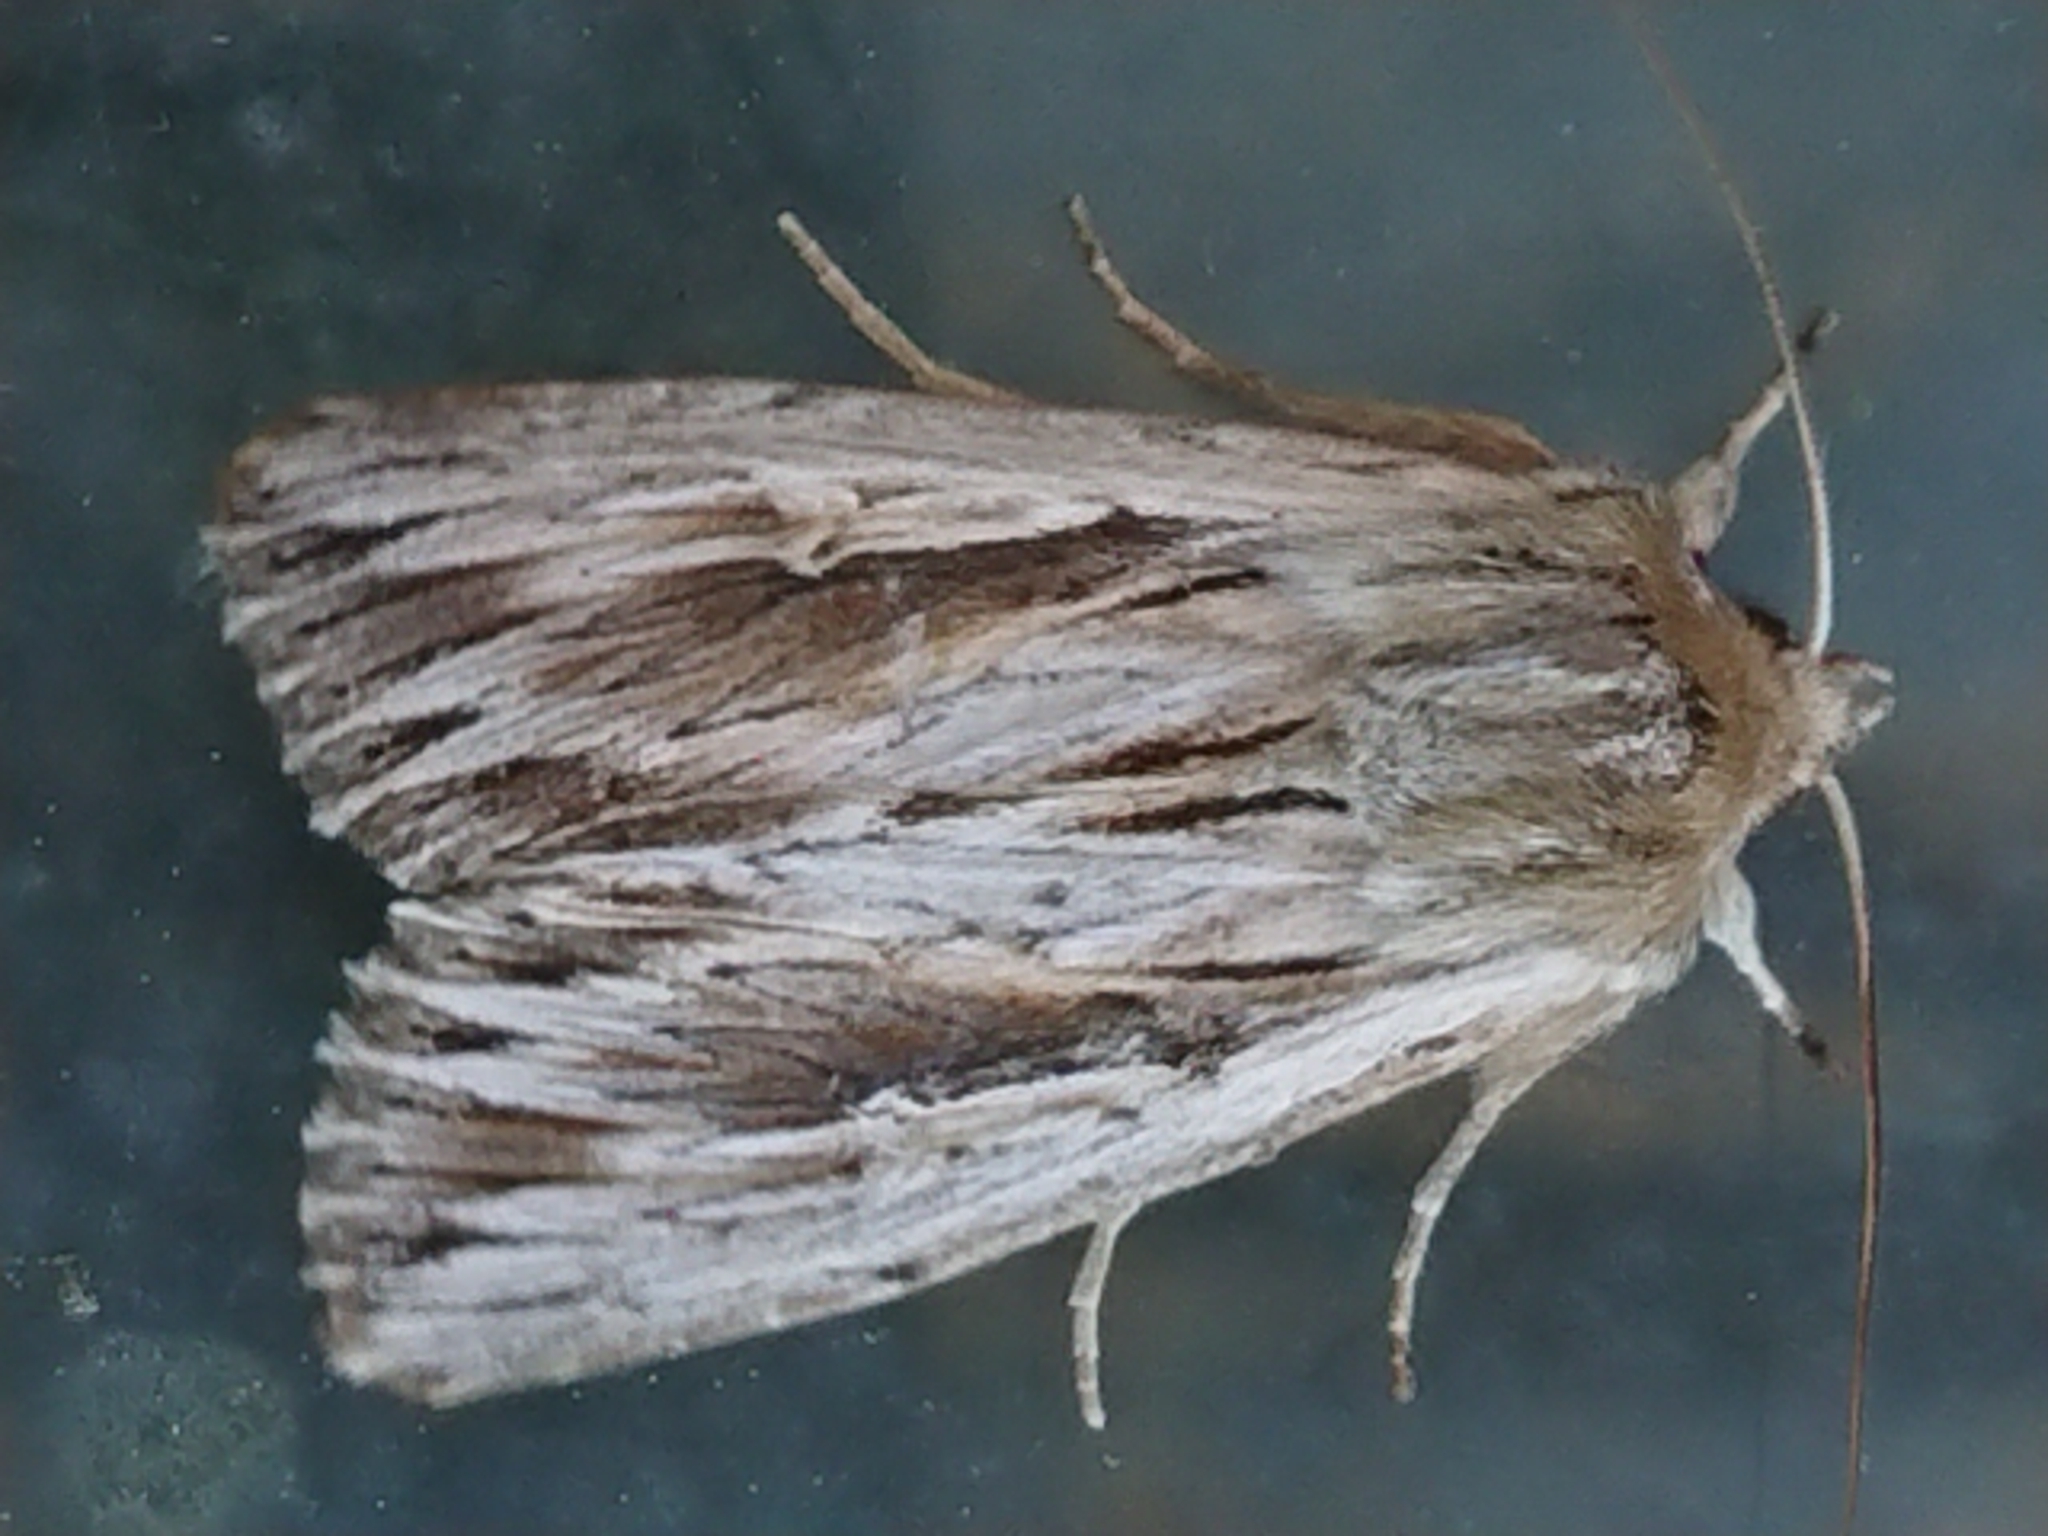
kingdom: Animalia
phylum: Arthropoda
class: Insecta
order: Lepidoptera
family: Noctuidae
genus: Persectania
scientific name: Persectania aversa
